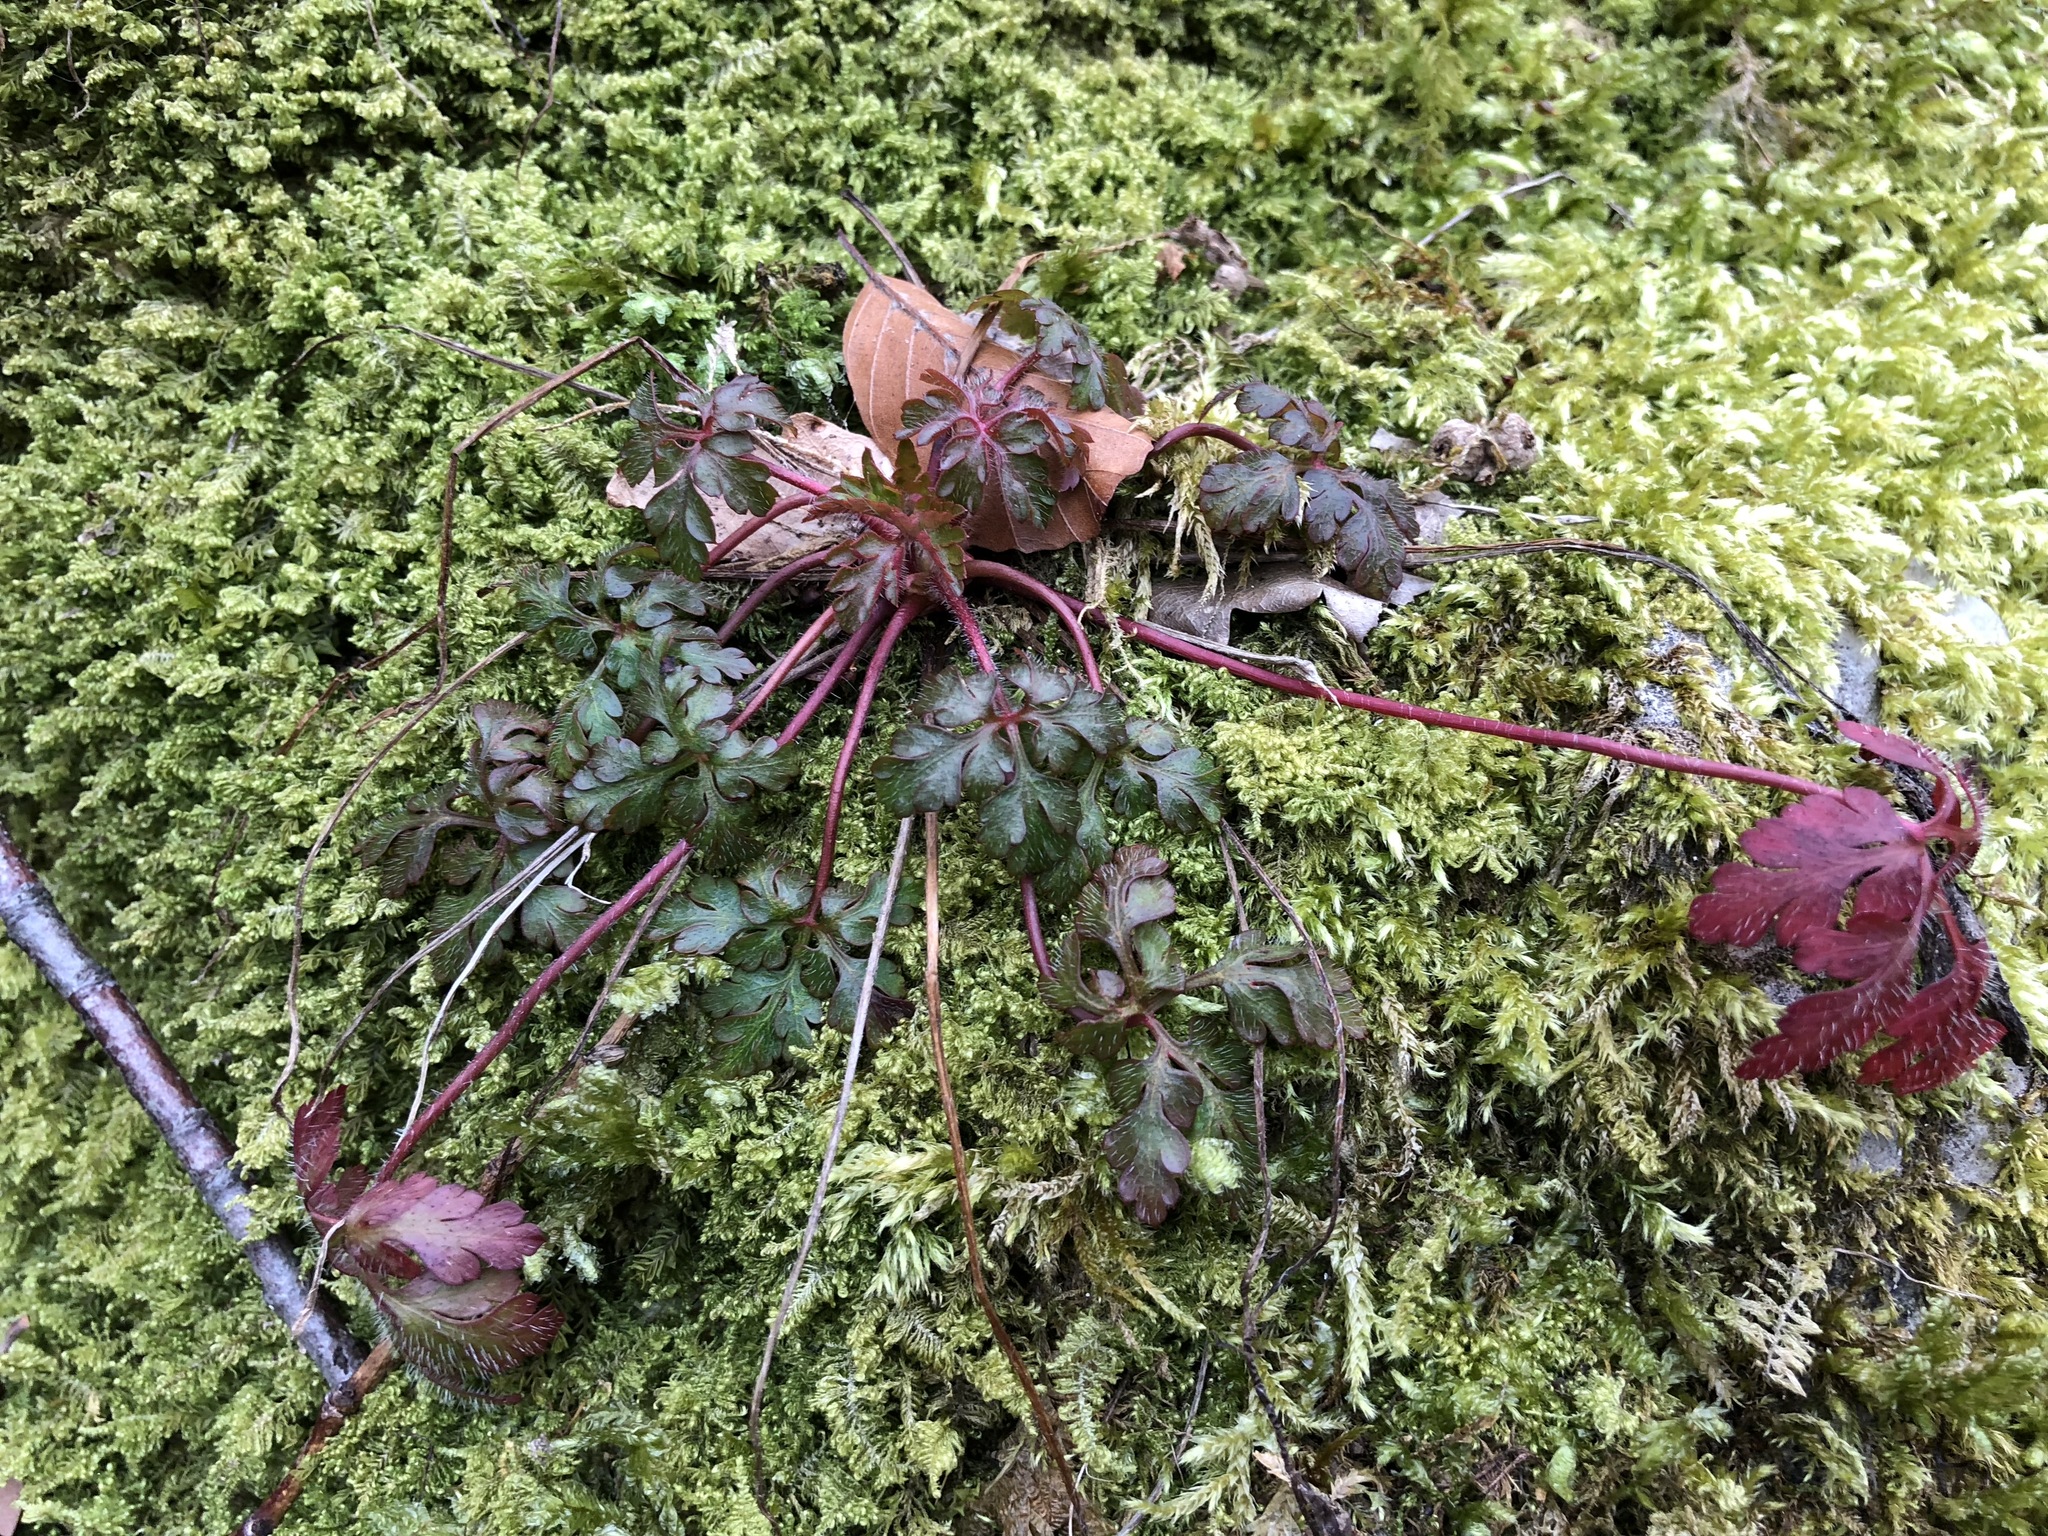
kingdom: Plantae
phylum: Tracheophyta
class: Magnoliopsida
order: Geraniales
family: Geraniaceae
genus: Geranium
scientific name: Geranium robertianum
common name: Herb-robert
